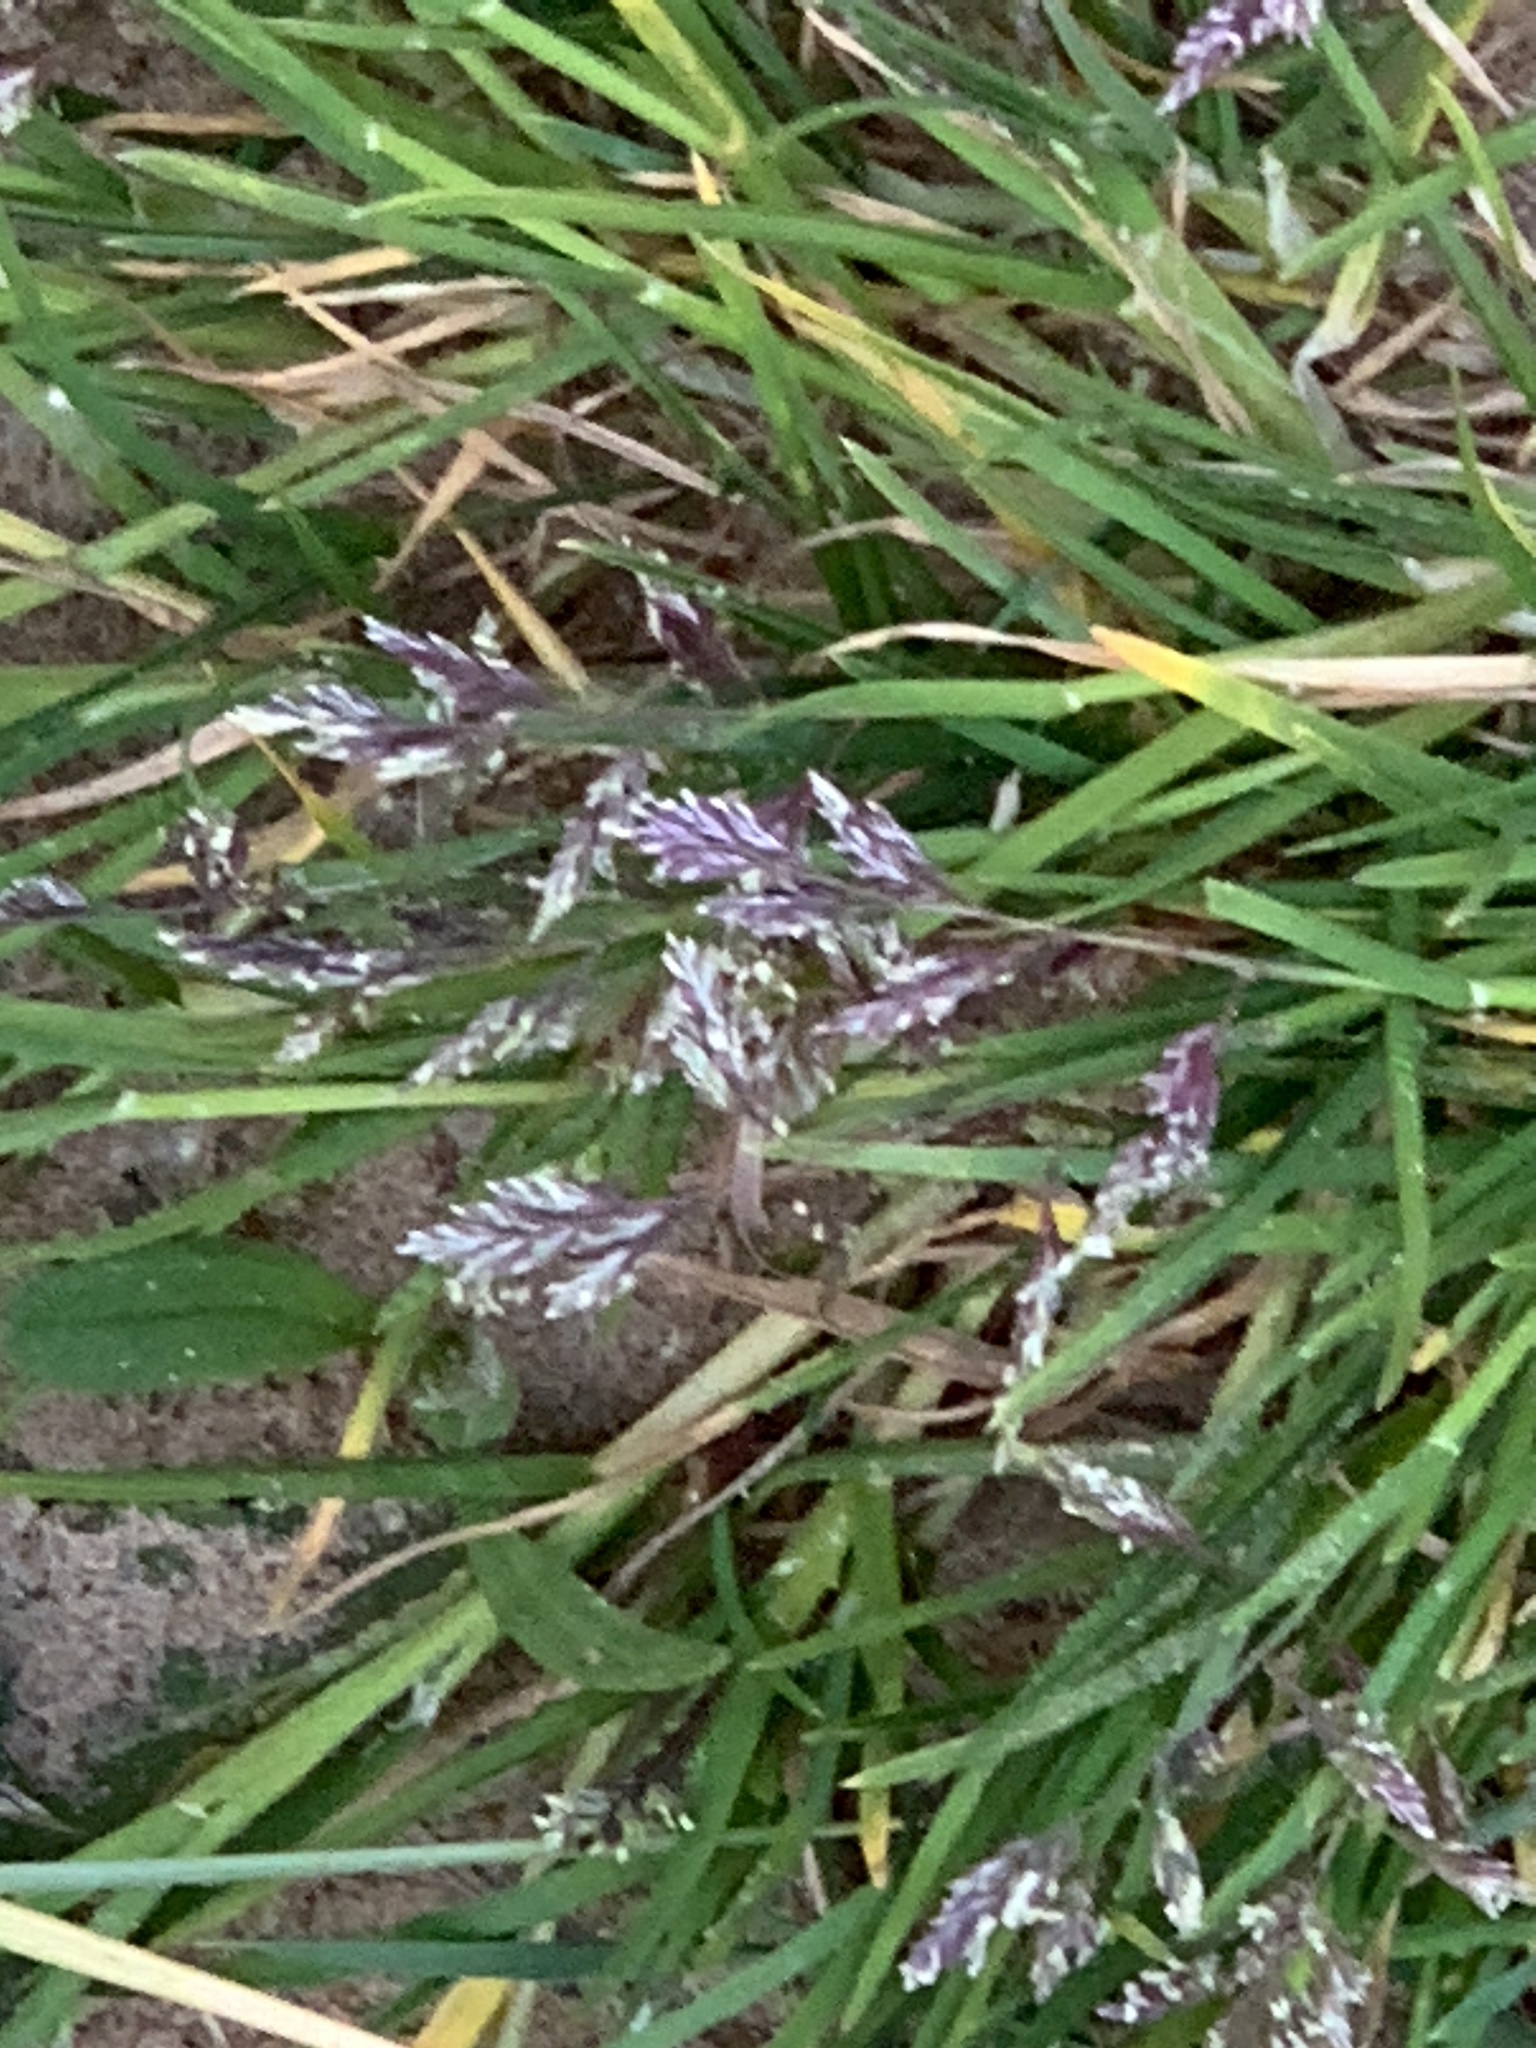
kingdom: Plantae
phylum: Tracheophyta
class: Liliopsida
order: Poales
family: Poaceae
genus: Poa
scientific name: Poa annua
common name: Annual bluegrass
